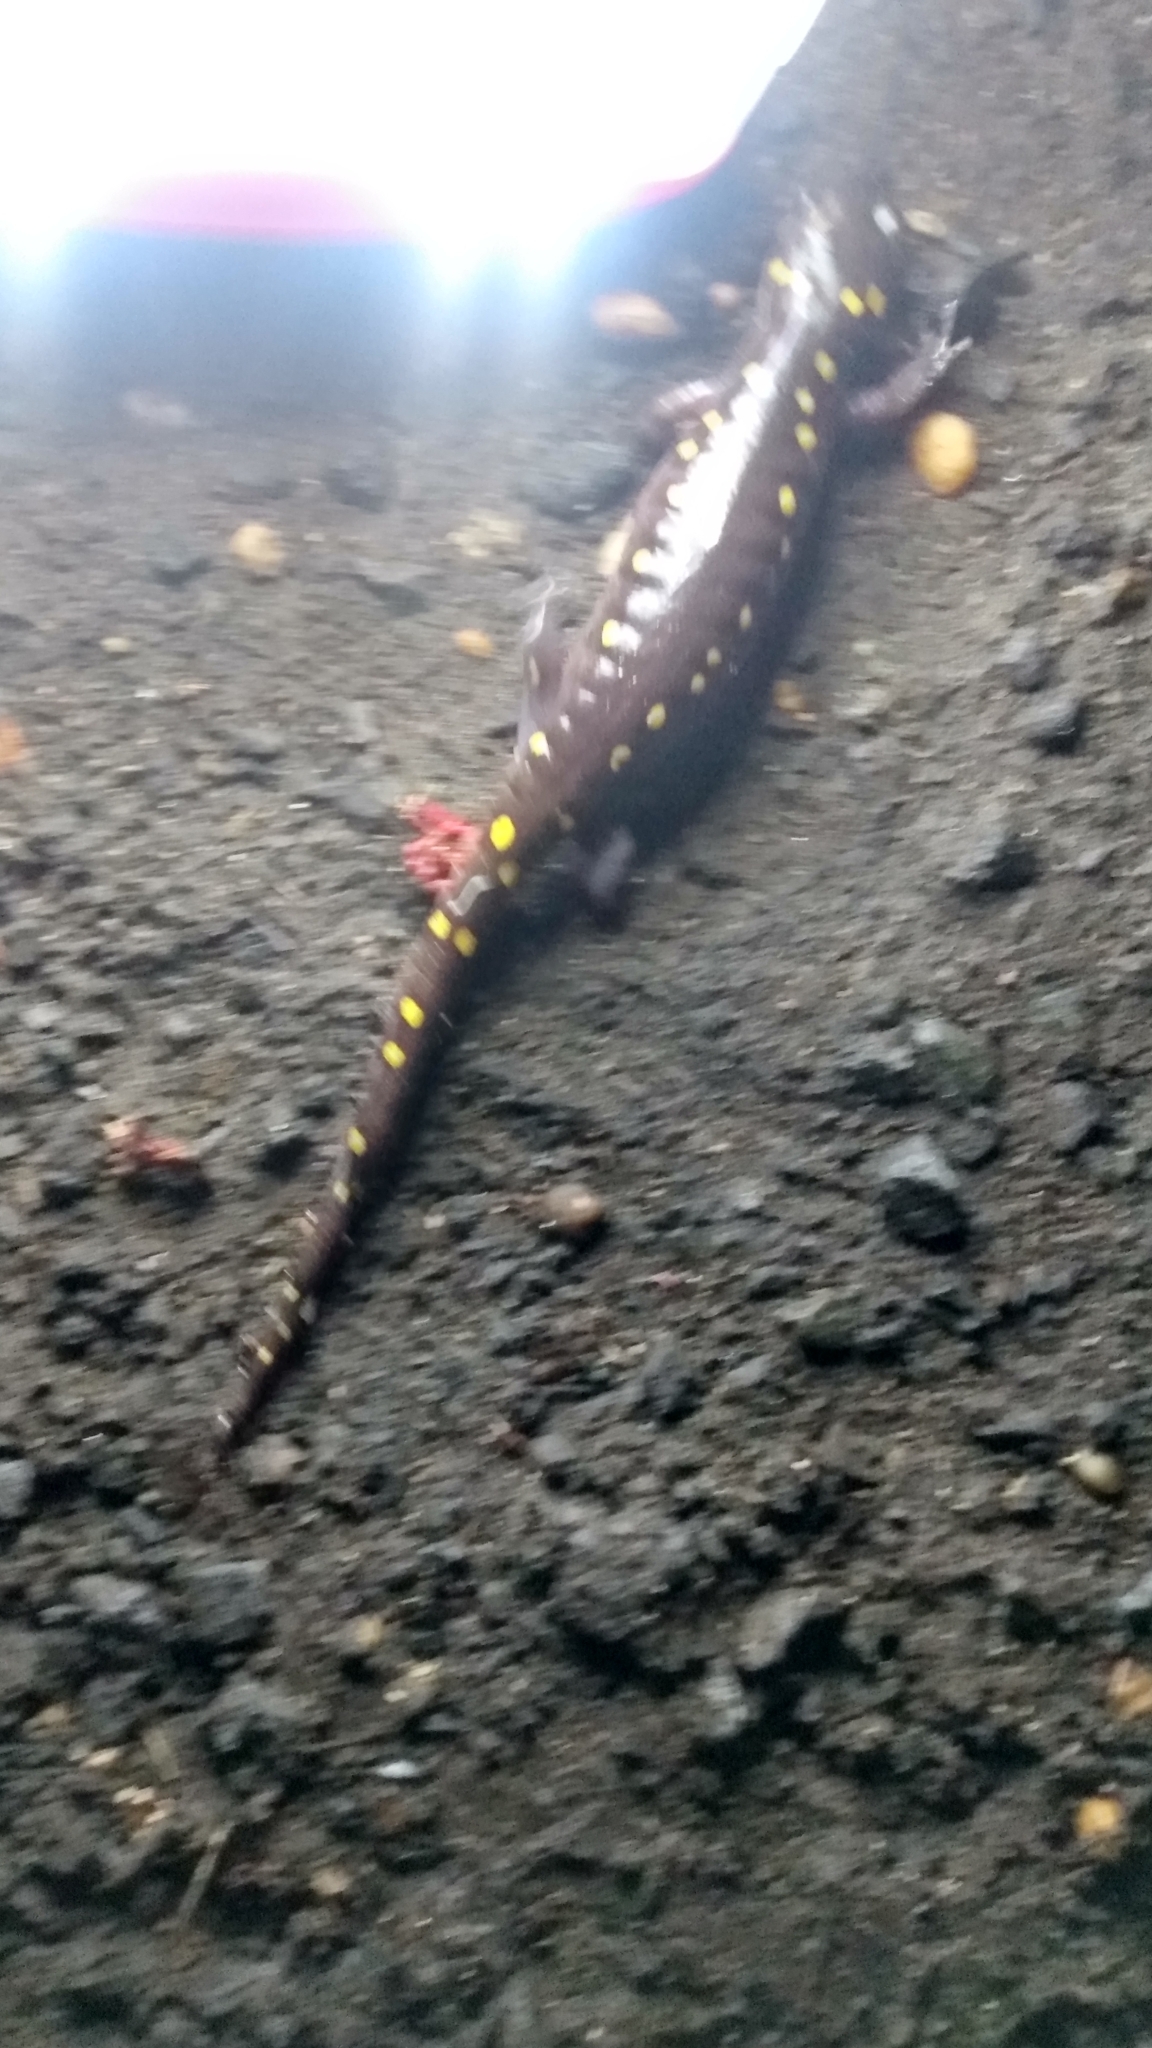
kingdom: Animalia
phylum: Chordata
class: Amphibia
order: Caudata
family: Ambystomatidae
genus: Ambystoma
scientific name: Ambystoma maculatum
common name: Spotted salamander
